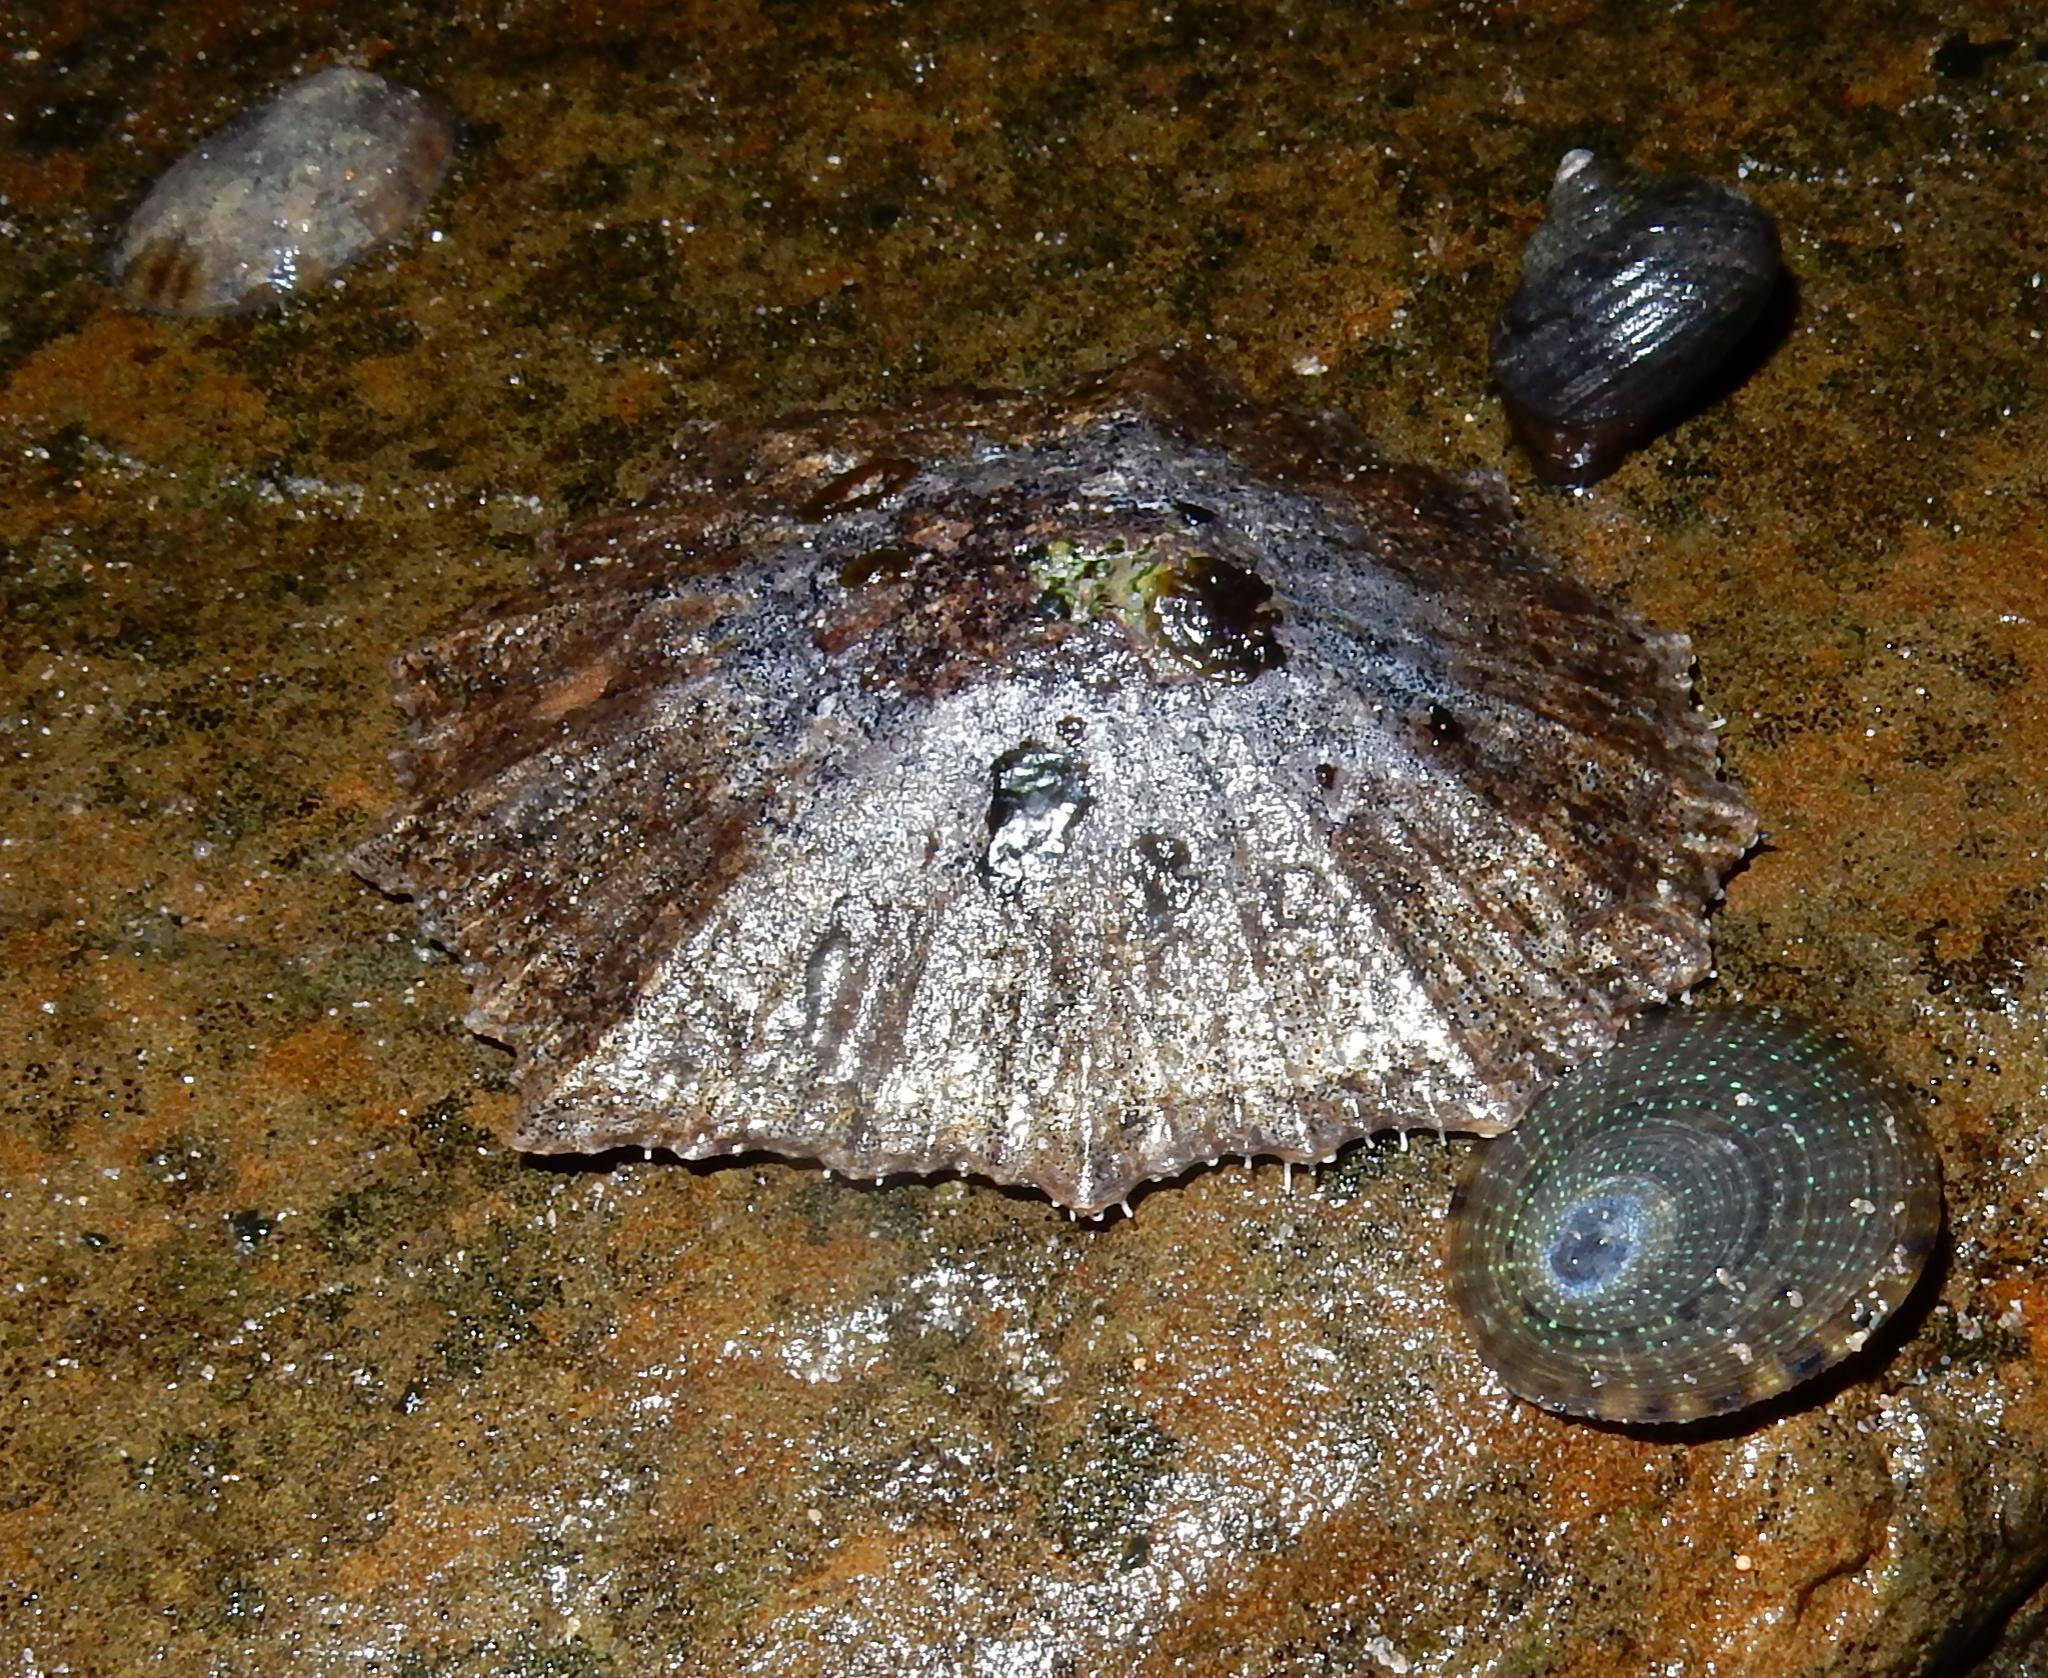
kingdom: Animalia
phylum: Mollusca
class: Gastropoda
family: Patellidae
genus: Cymbula
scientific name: Cymbula granatina
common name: Granite limpet
